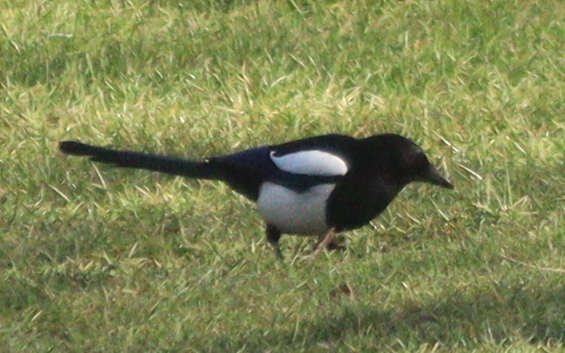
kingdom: Animalia
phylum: Chordata
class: Aves
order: Passeriformes
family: Corvidae
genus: Pica
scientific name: Pica pica
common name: Eurasian magpie
